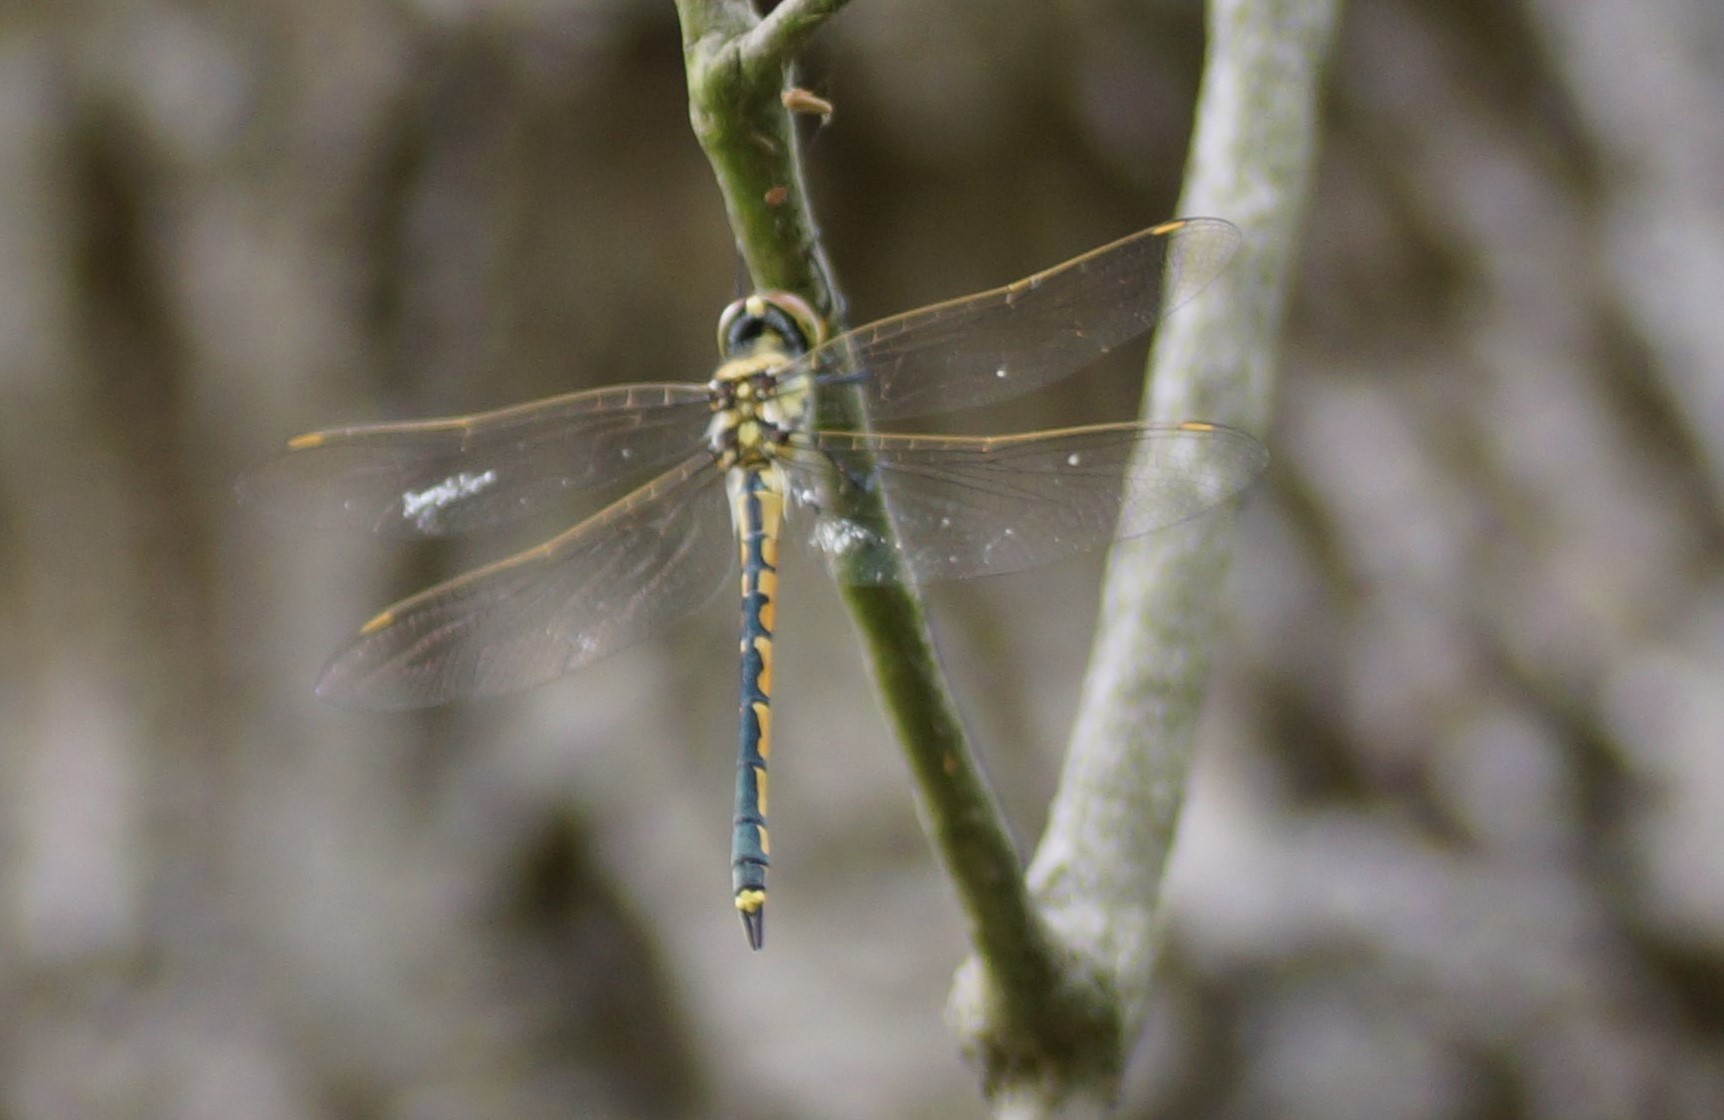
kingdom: Animalia
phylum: Arthropoda
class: Insecta
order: Odonata
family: Corduliidae
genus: Hemicordulia
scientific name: Hemicordulia tau
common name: Tau emerald
